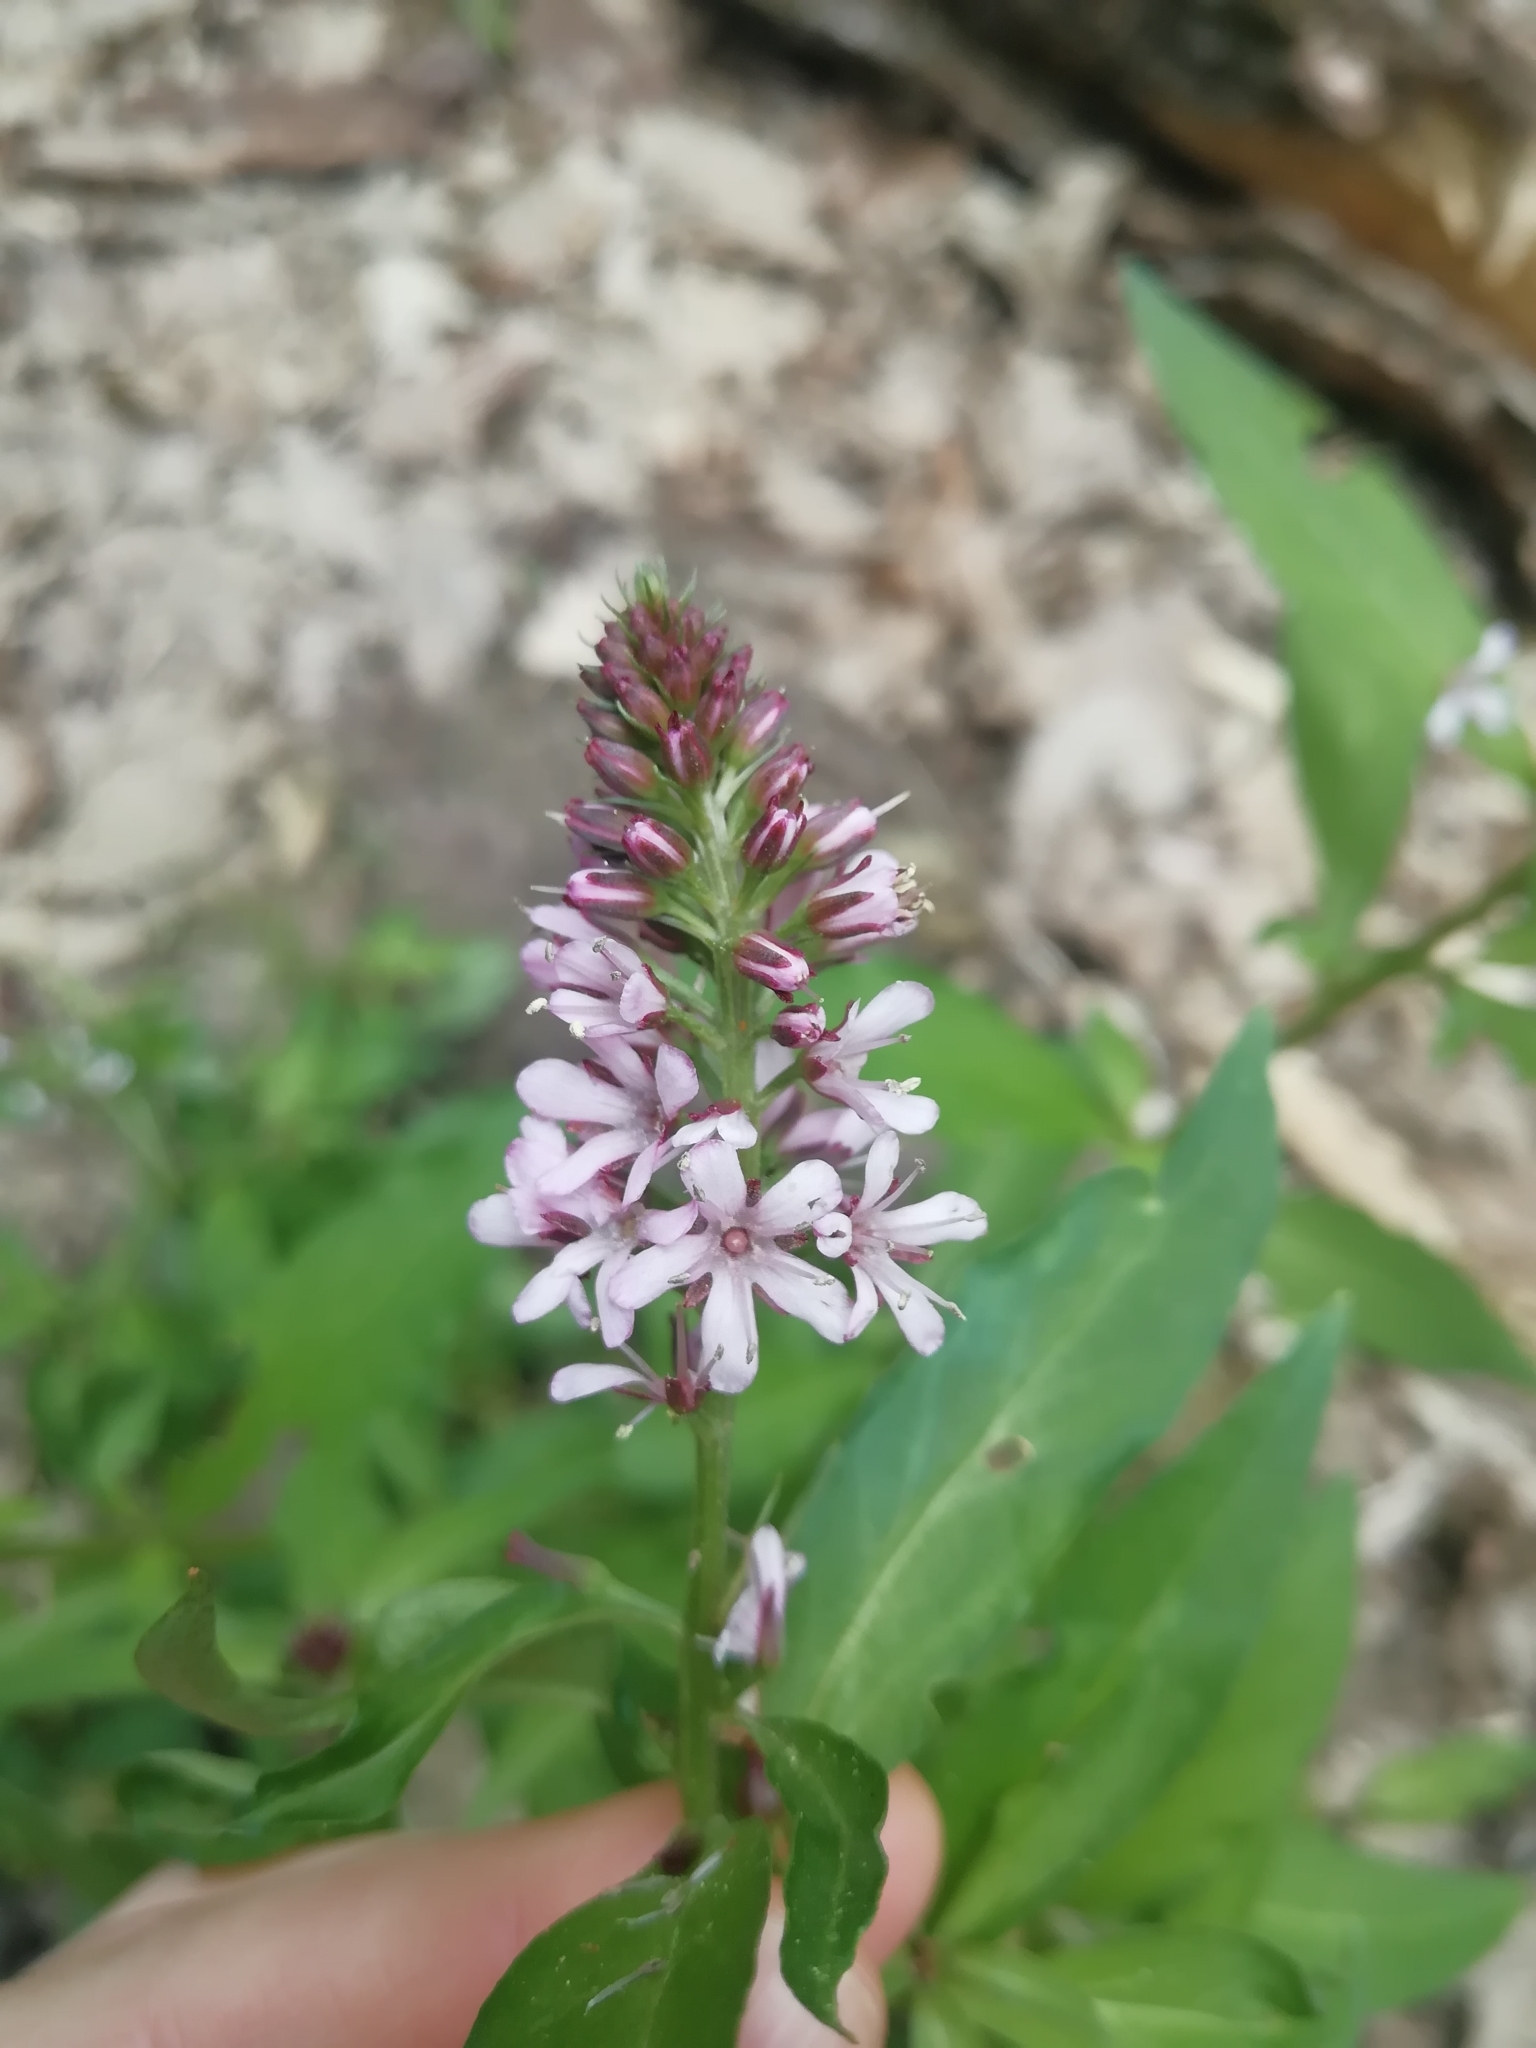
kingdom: Plantae
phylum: Tracheophyta
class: Magnoliopsida
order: Ericales
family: Primulaceae
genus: Lysimachia
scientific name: Lysimachia dubia
